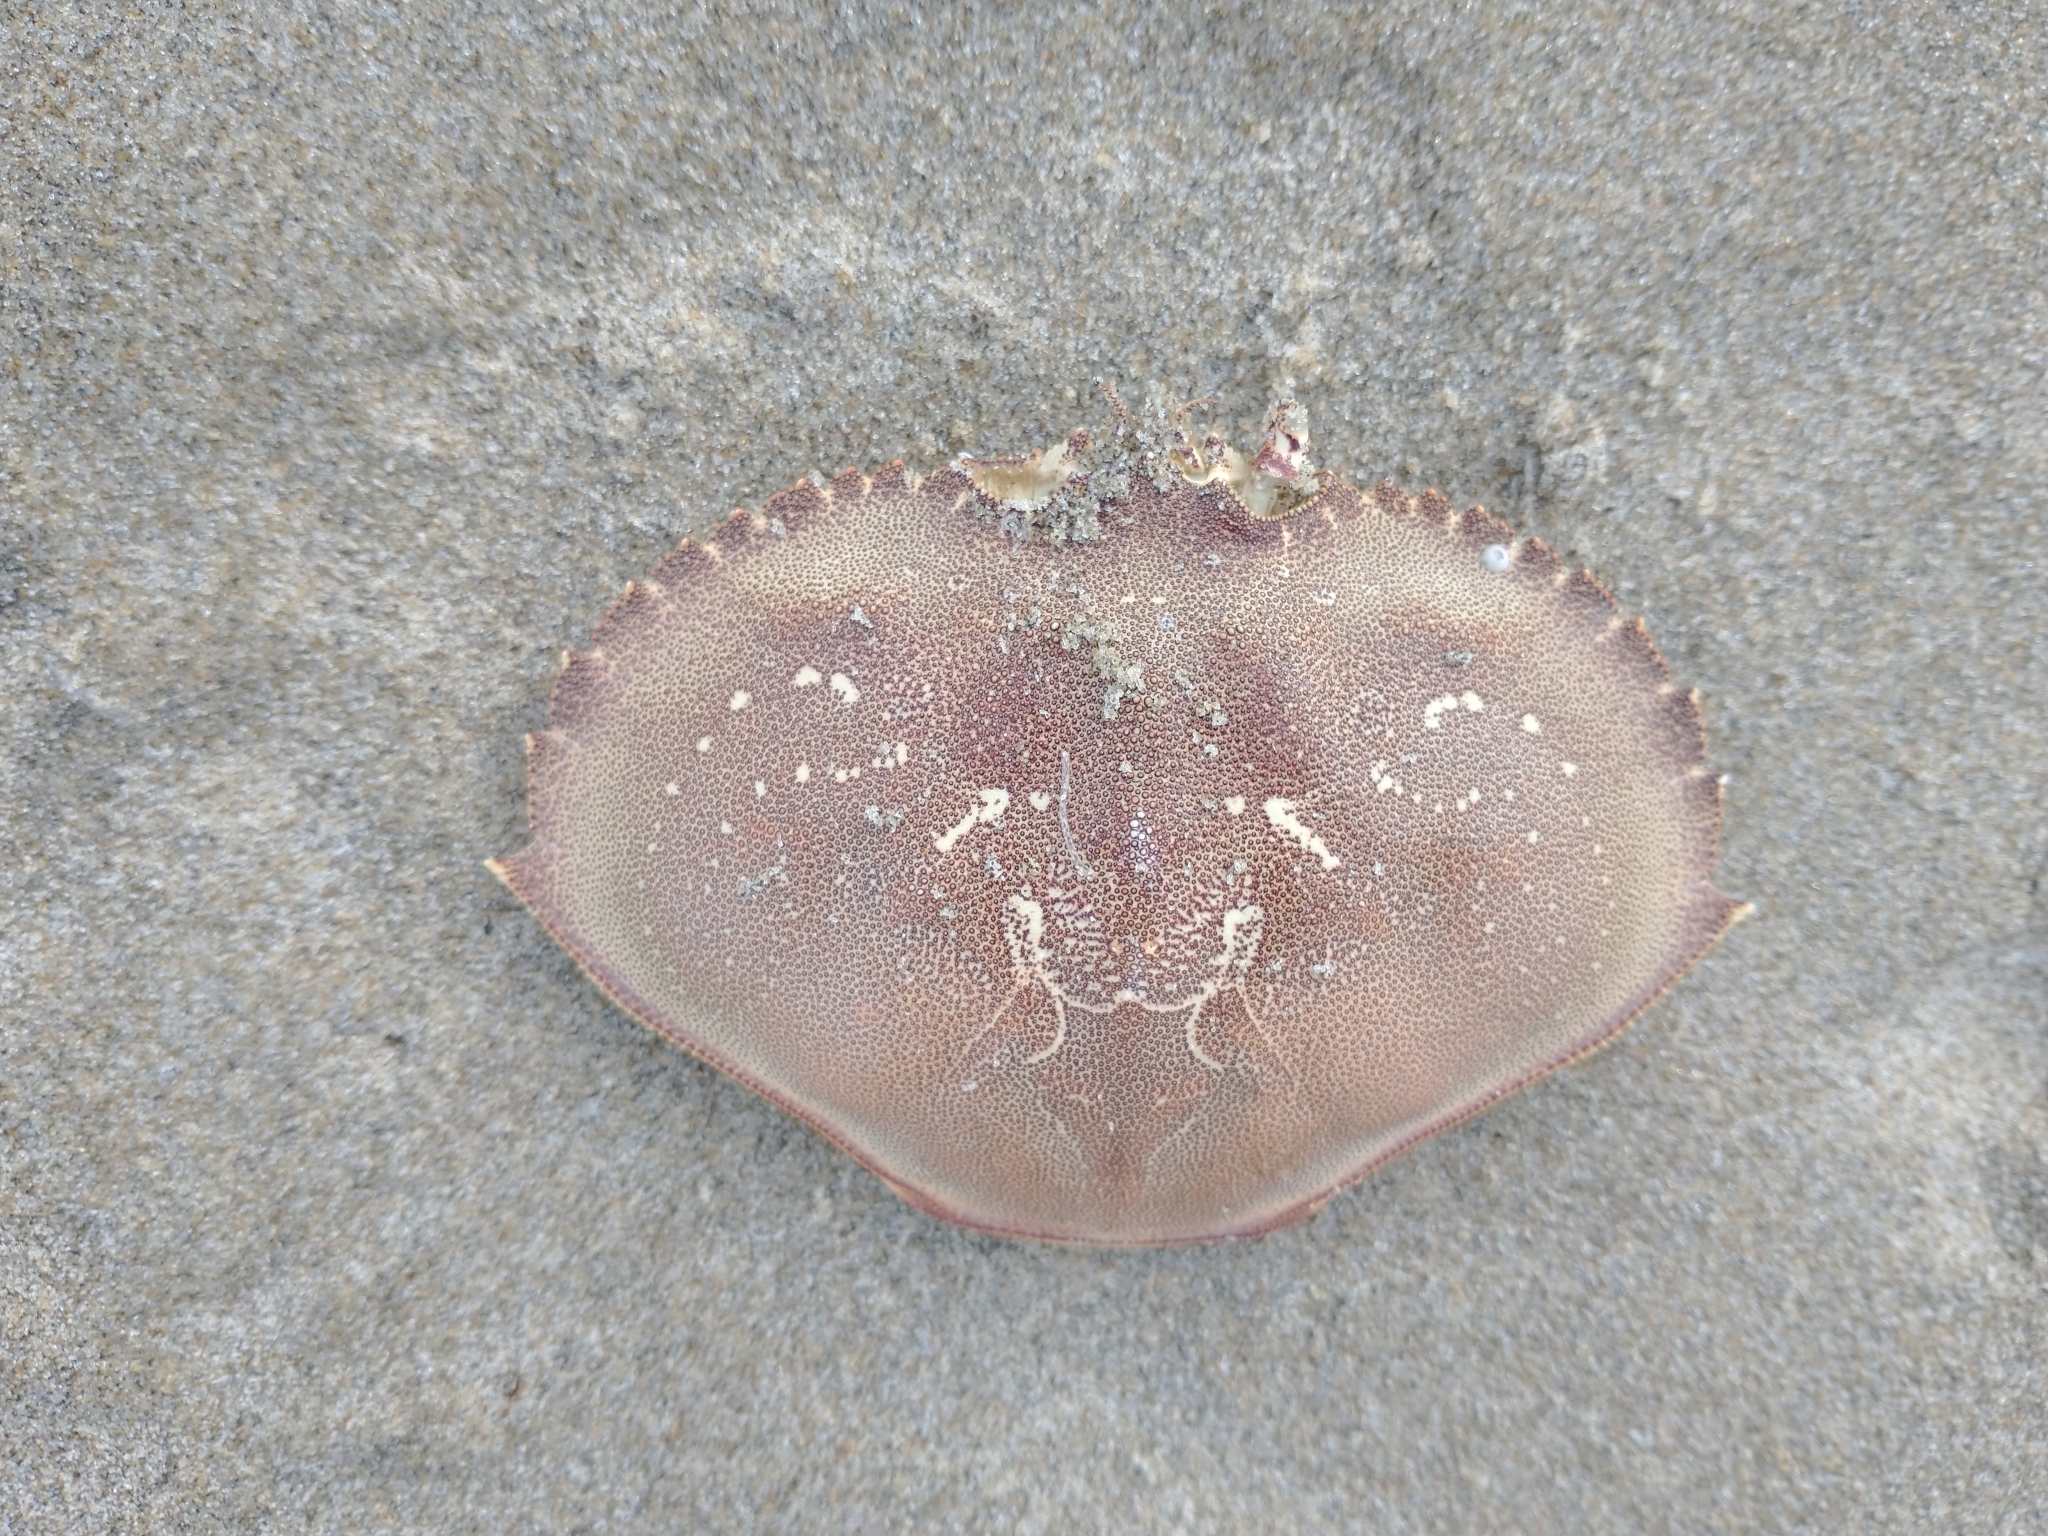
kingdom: Animalia
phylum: Arthropoda
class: Malacostraca
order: Decapoda
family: Cancridae
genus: Metacarcinus
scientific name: Metacarcinus magister
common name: Californian crab
